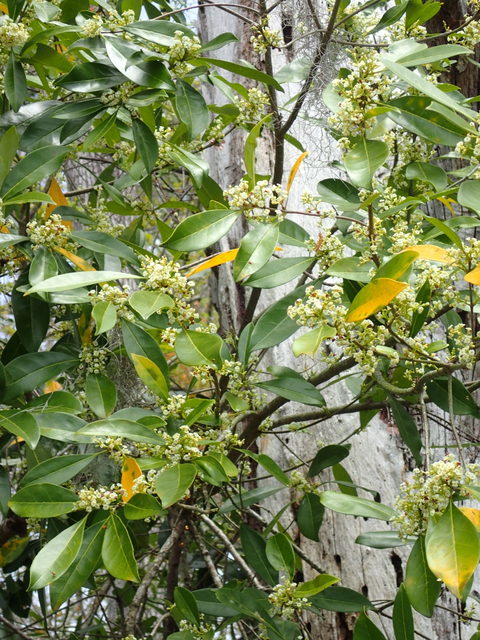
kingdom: Plantae
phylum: Tracheophyta
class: Magnoliopsida
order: Lamiales
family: Oleaceae
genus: Cartrema
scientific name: Cartrema americana
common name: Devilwood
